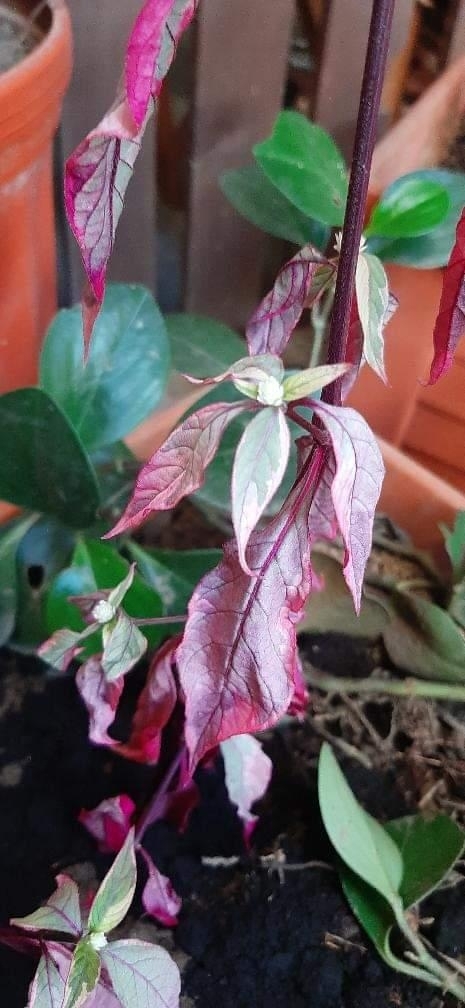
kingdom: Plantae
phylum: Tracheophyta
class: Magnoliopsida
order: Caryophyllales
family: Amaranthaceae
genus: Alternanthera
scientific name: Alternanthera brasiliana
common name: Brazilian joyweed
